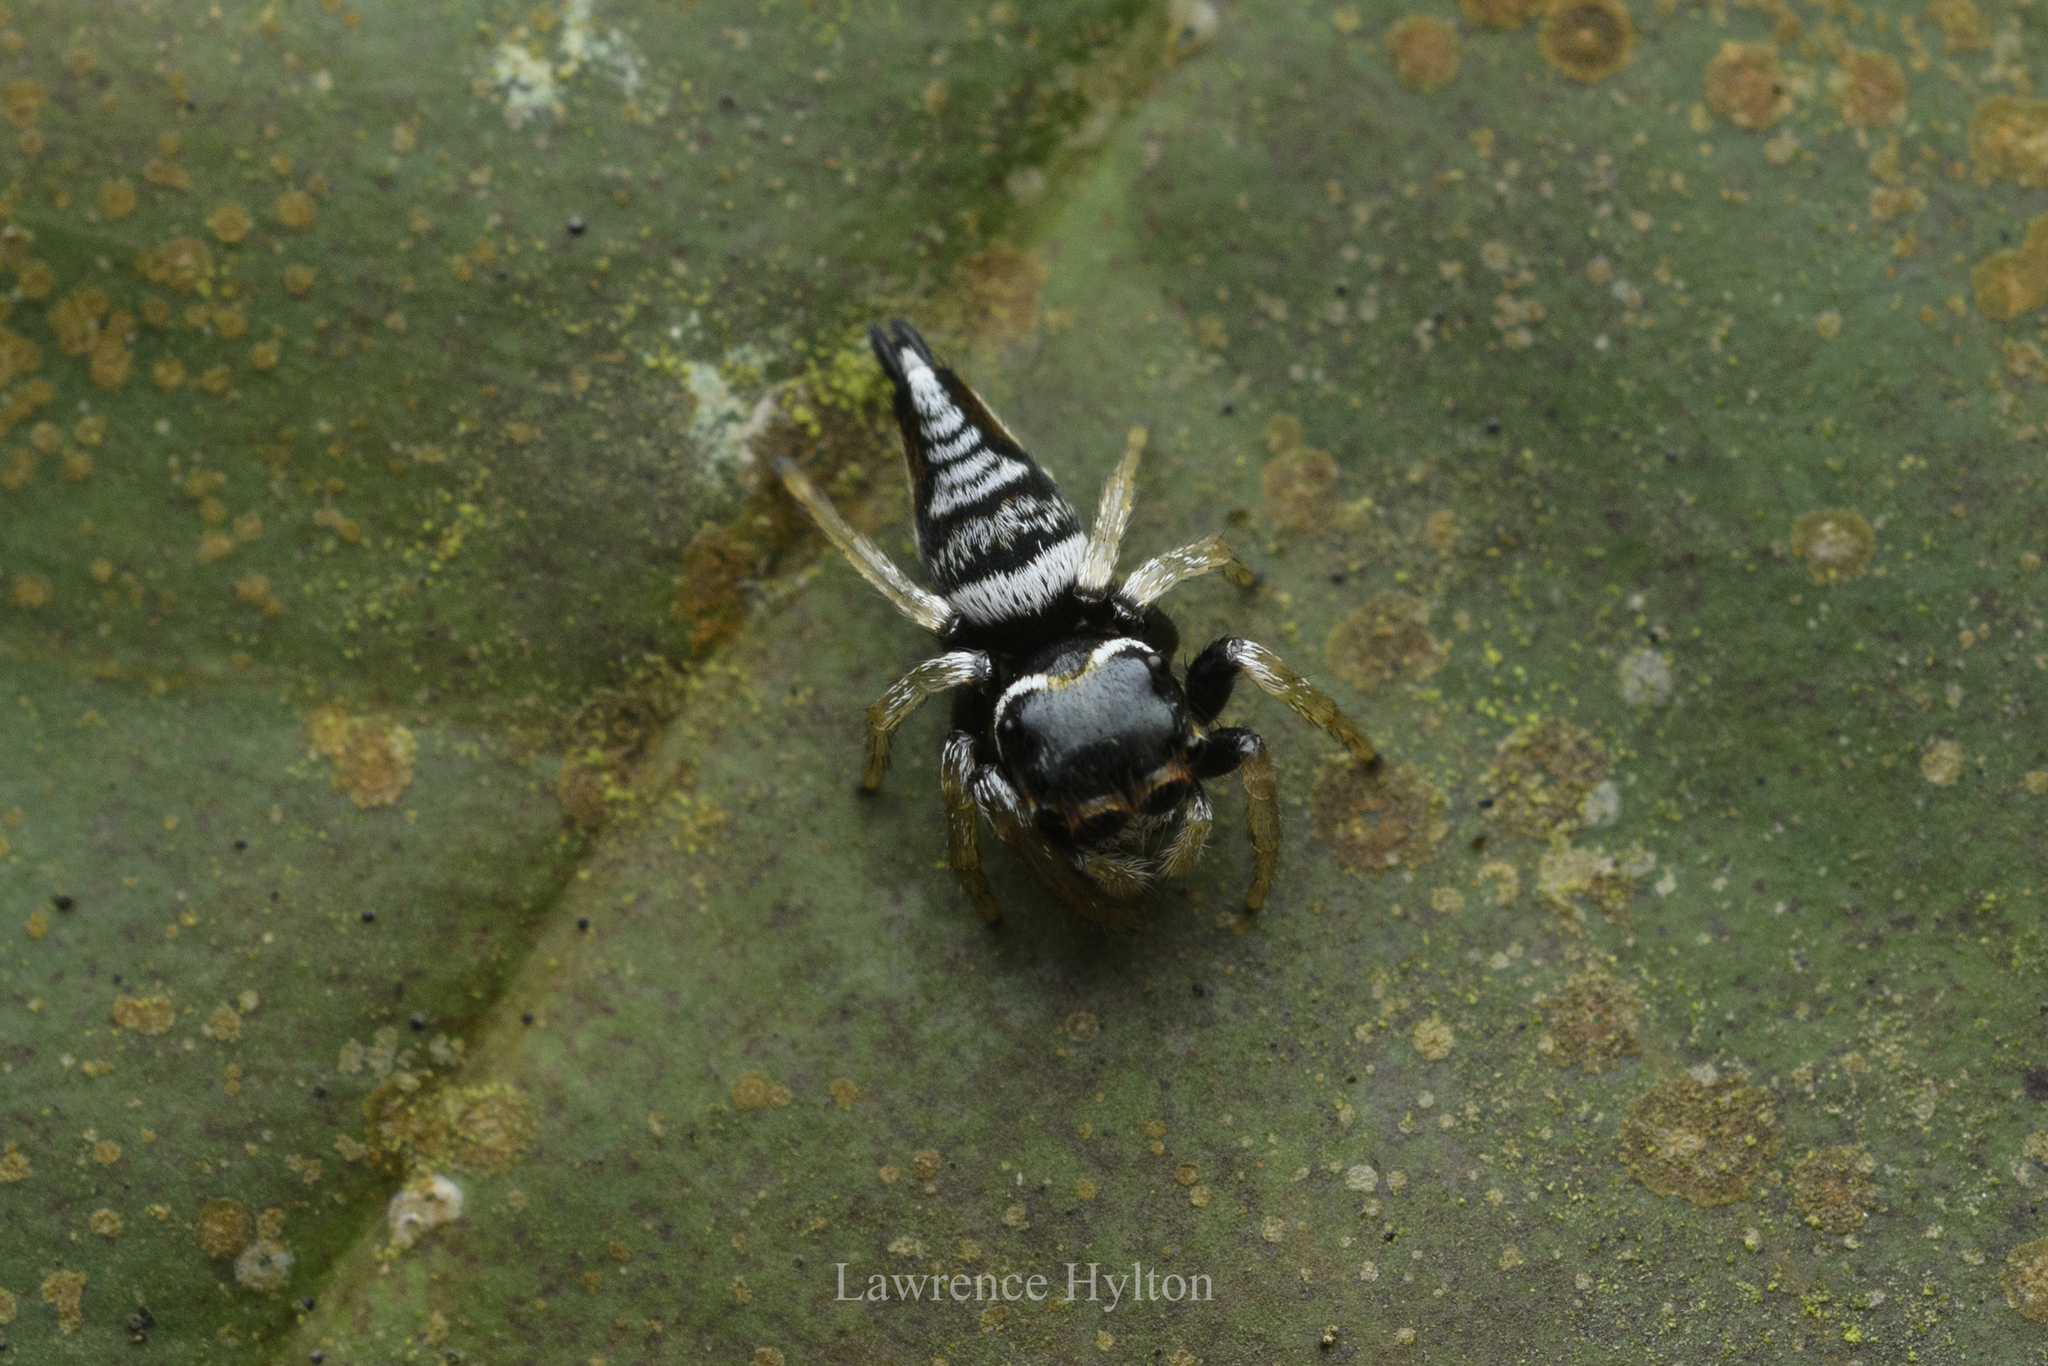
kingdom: Animalia
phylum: Arthropoda
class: Arachnida
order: Araneae
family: Salticidae
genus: Ptocasius
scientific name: Ptocasius weyersi
